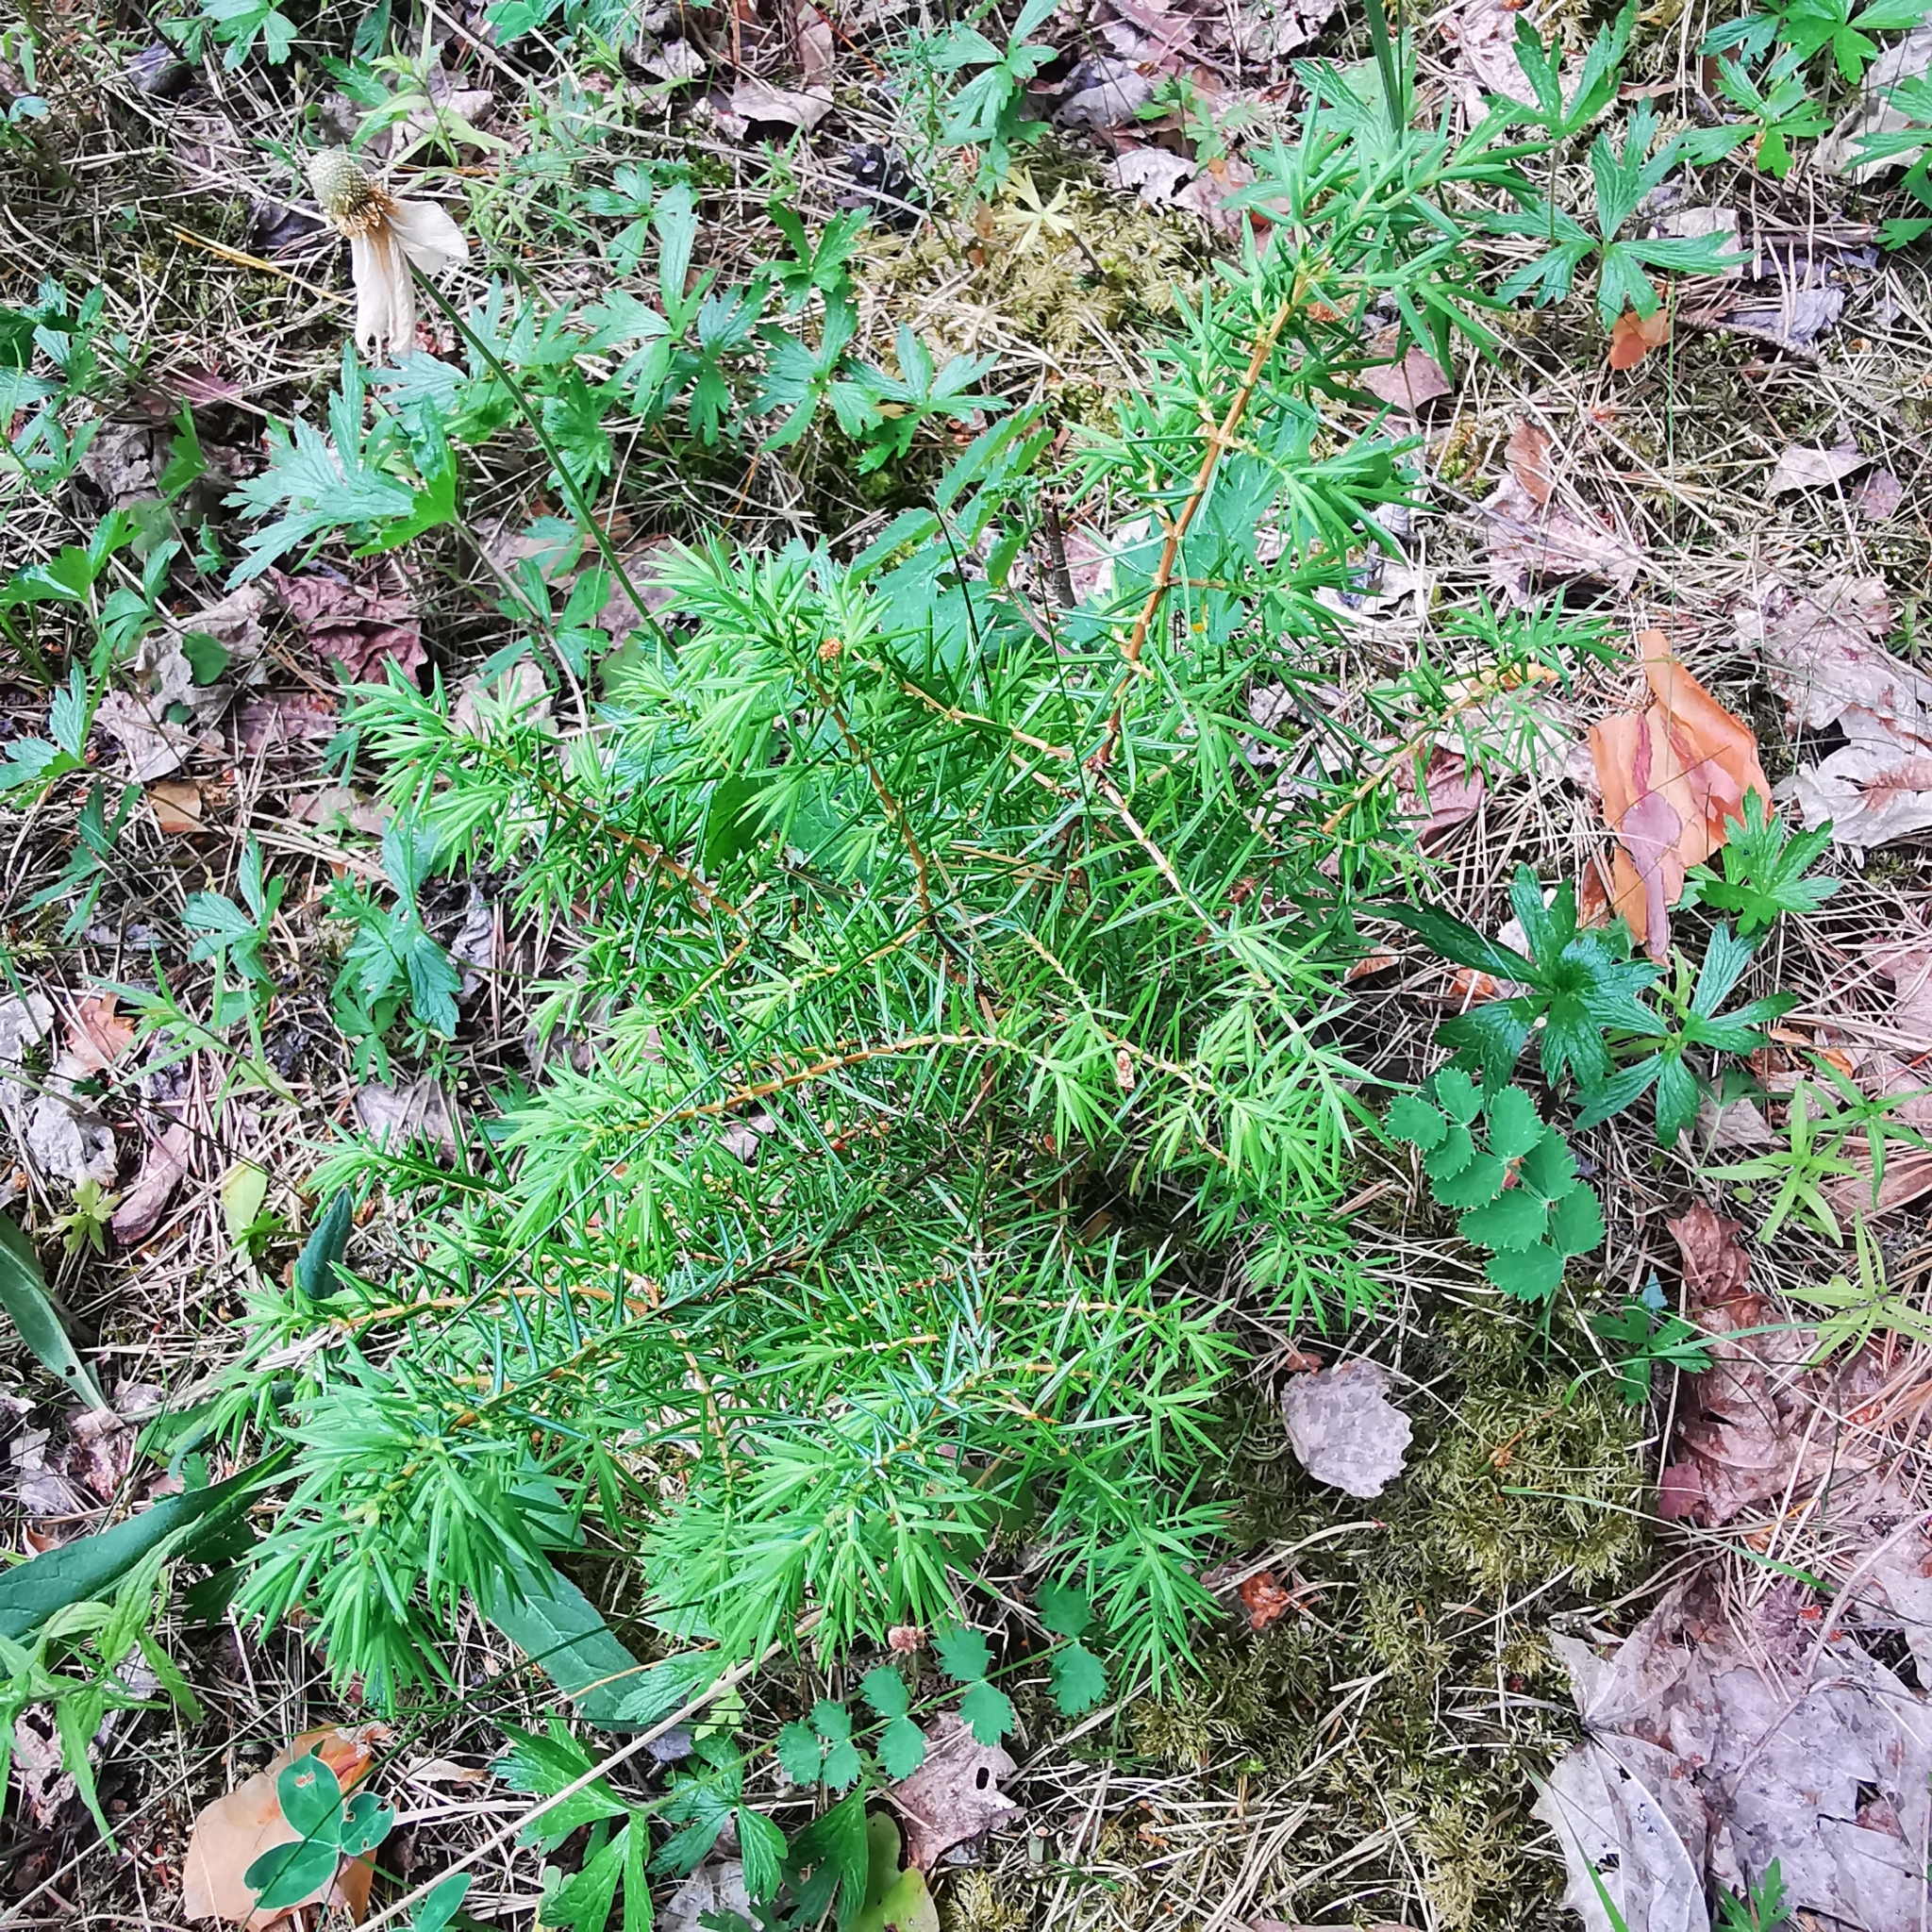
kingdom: Plantae
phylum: Tracheophyta
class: Pinopsida
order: Pinales
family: Cupressaceae
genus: Juniperus
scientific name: Juniperus communis
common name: Common juniper
